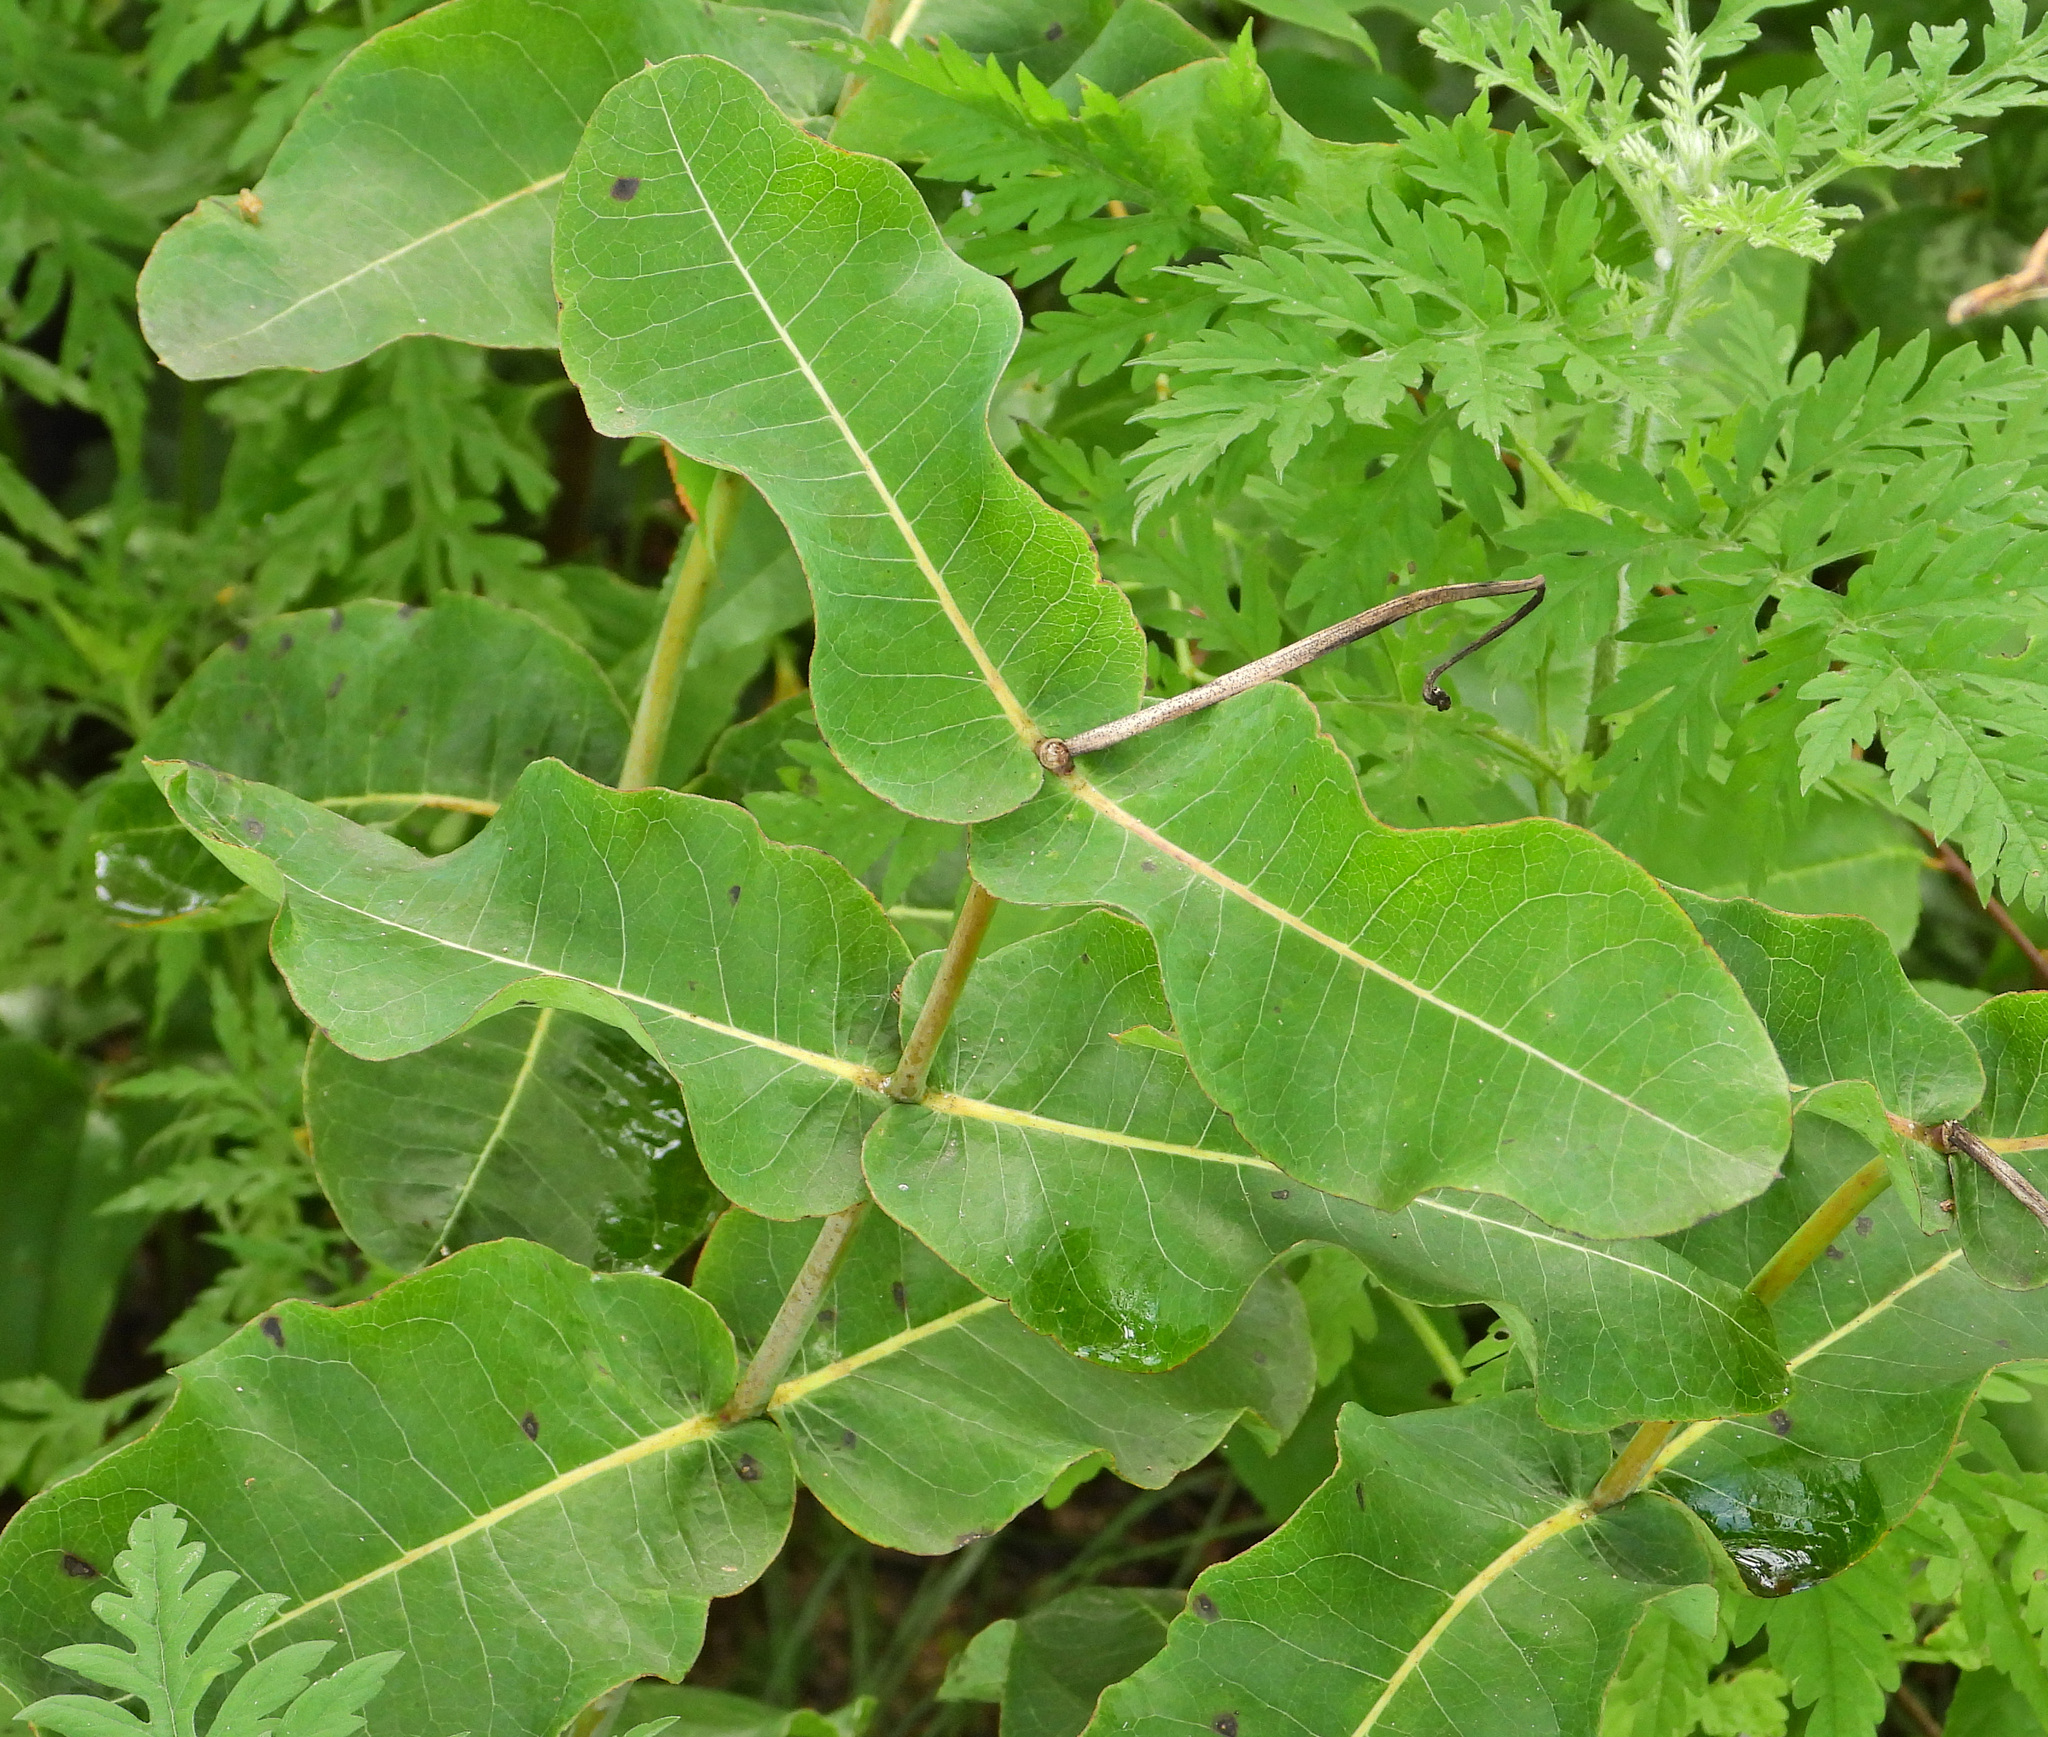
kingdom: Plantae
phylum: Tracheophyta
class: Magnoliopsida
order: Gentianales
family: Apocynaceae
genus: Asclepias
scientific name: Asclepias amplexicaulis
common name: Blunt-leaf milkweed
